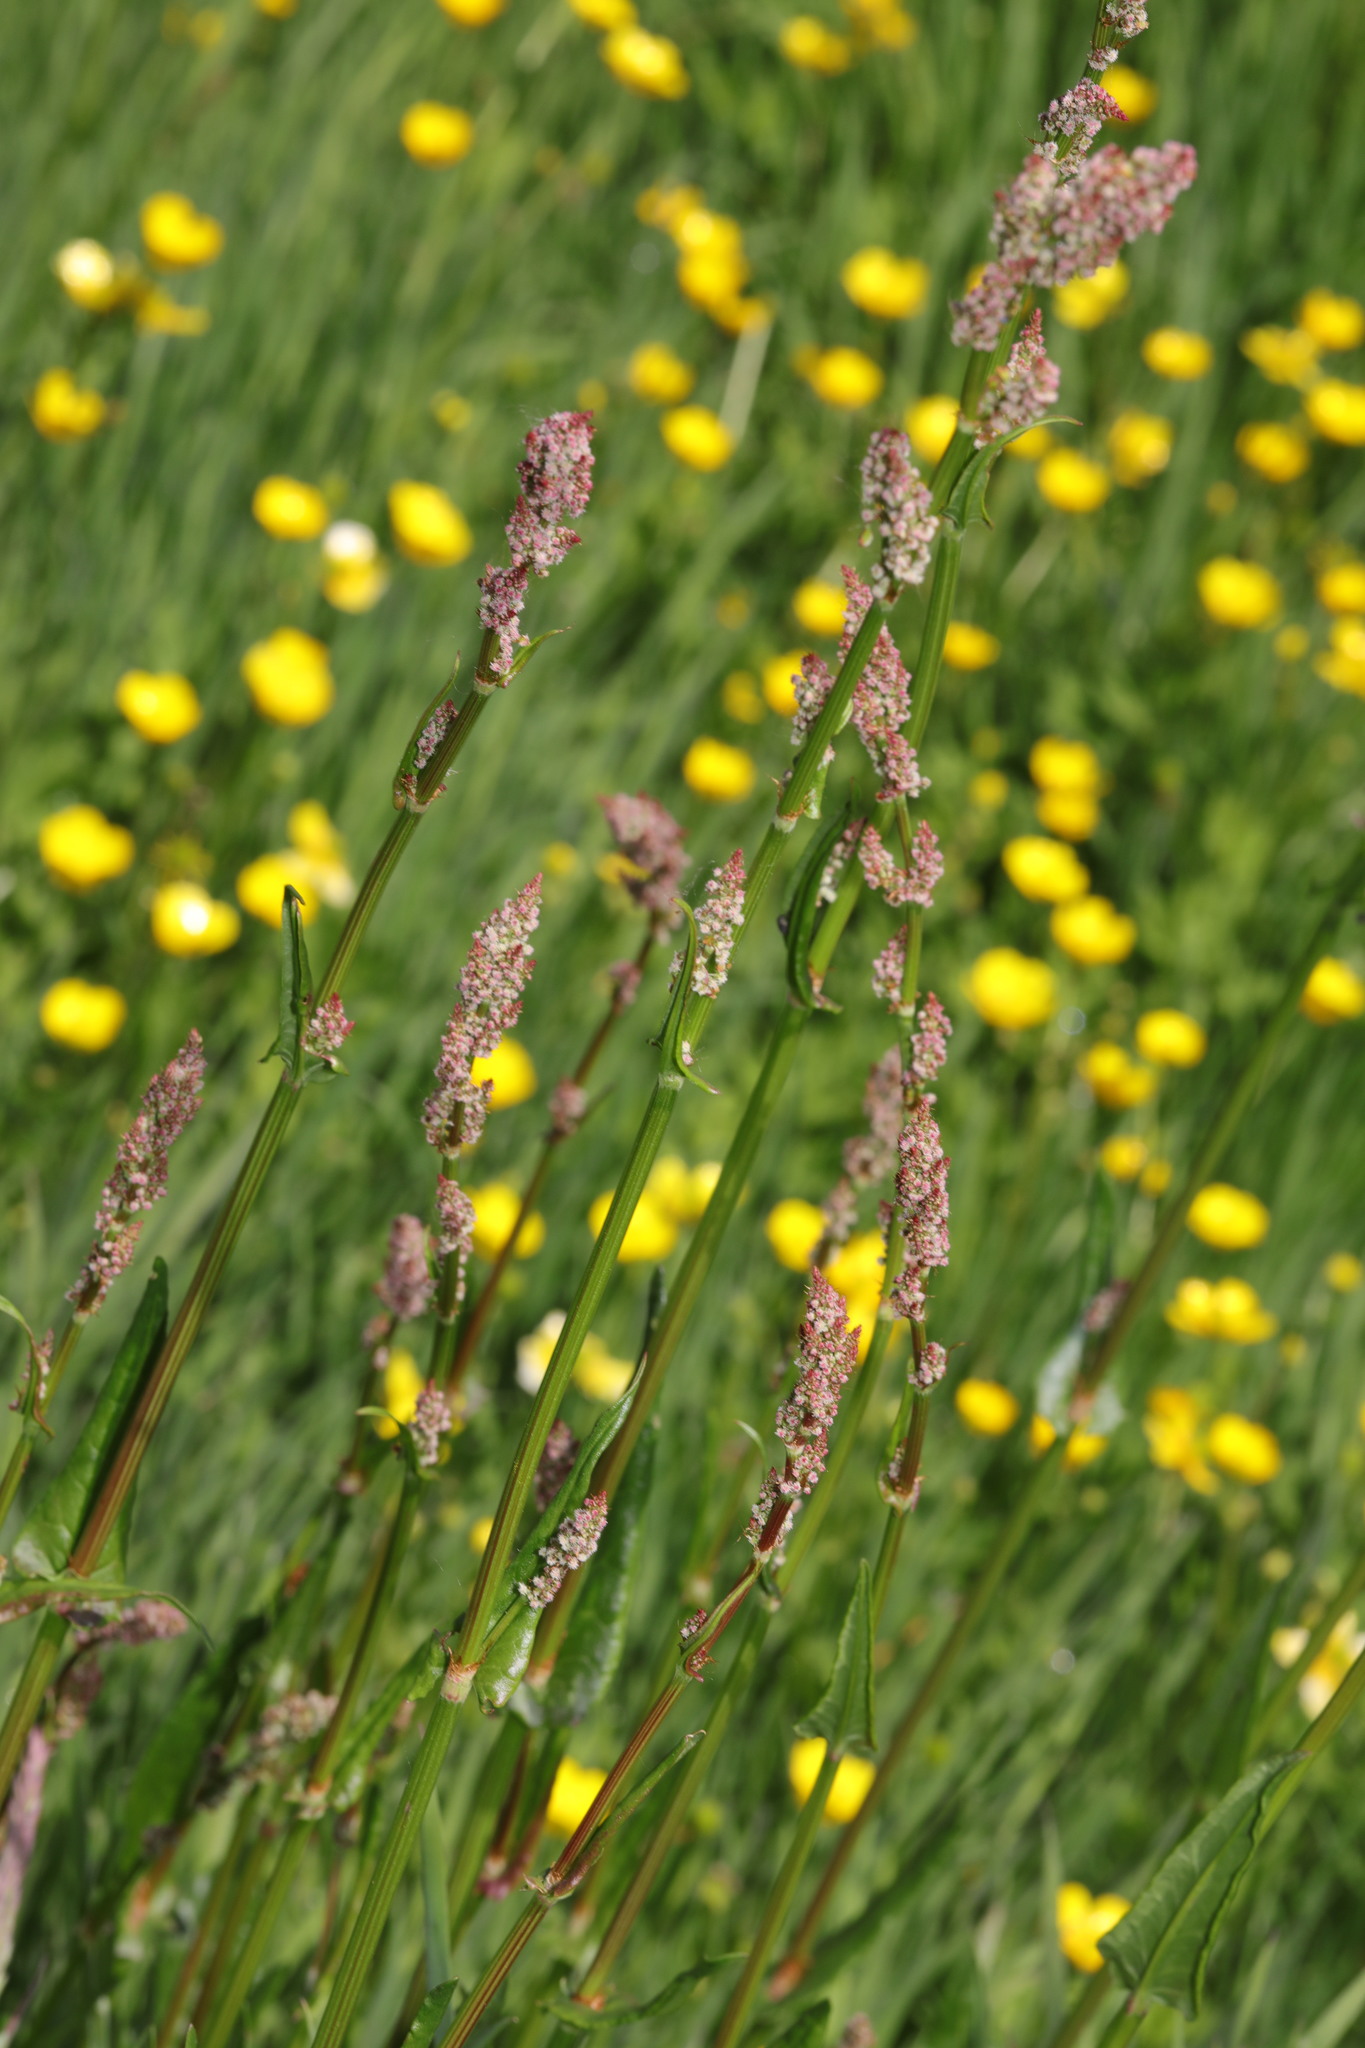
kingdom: Plantae
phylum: Tracheophyta
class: Magnoliopsida
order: Caryophyllales
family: Polygonaceae
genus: Rumex
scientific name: Rumex acetosa
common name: Garden sorrel
